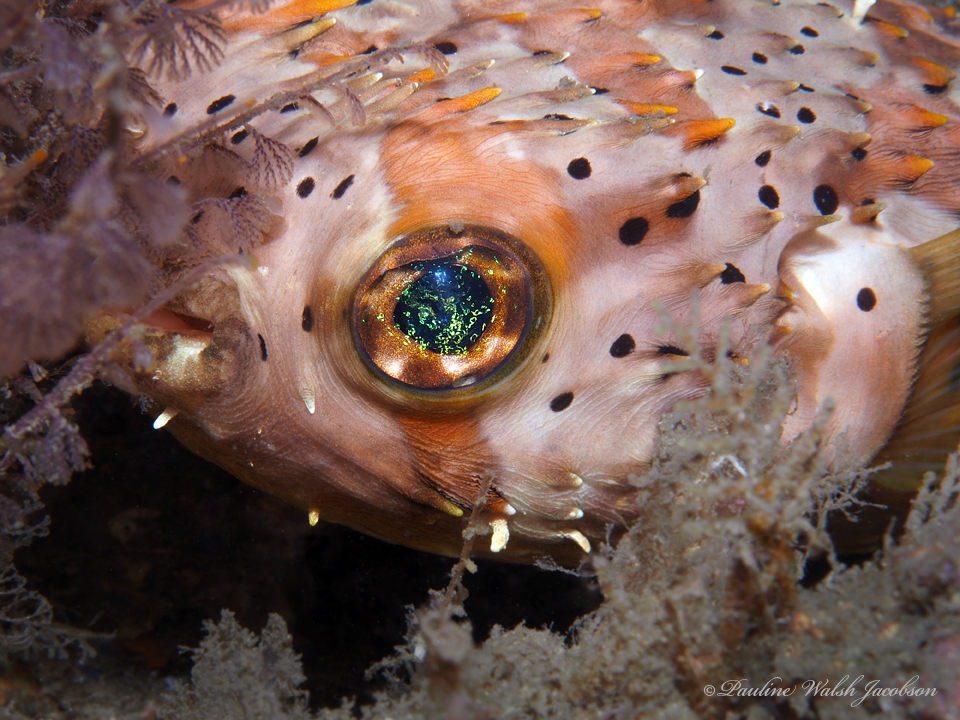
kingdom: Animalia
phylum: Chordata
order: Tetraodontiformes
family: Diodontidae
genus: Diodon
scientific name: Diodon holocanthus
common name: Balloonfish
